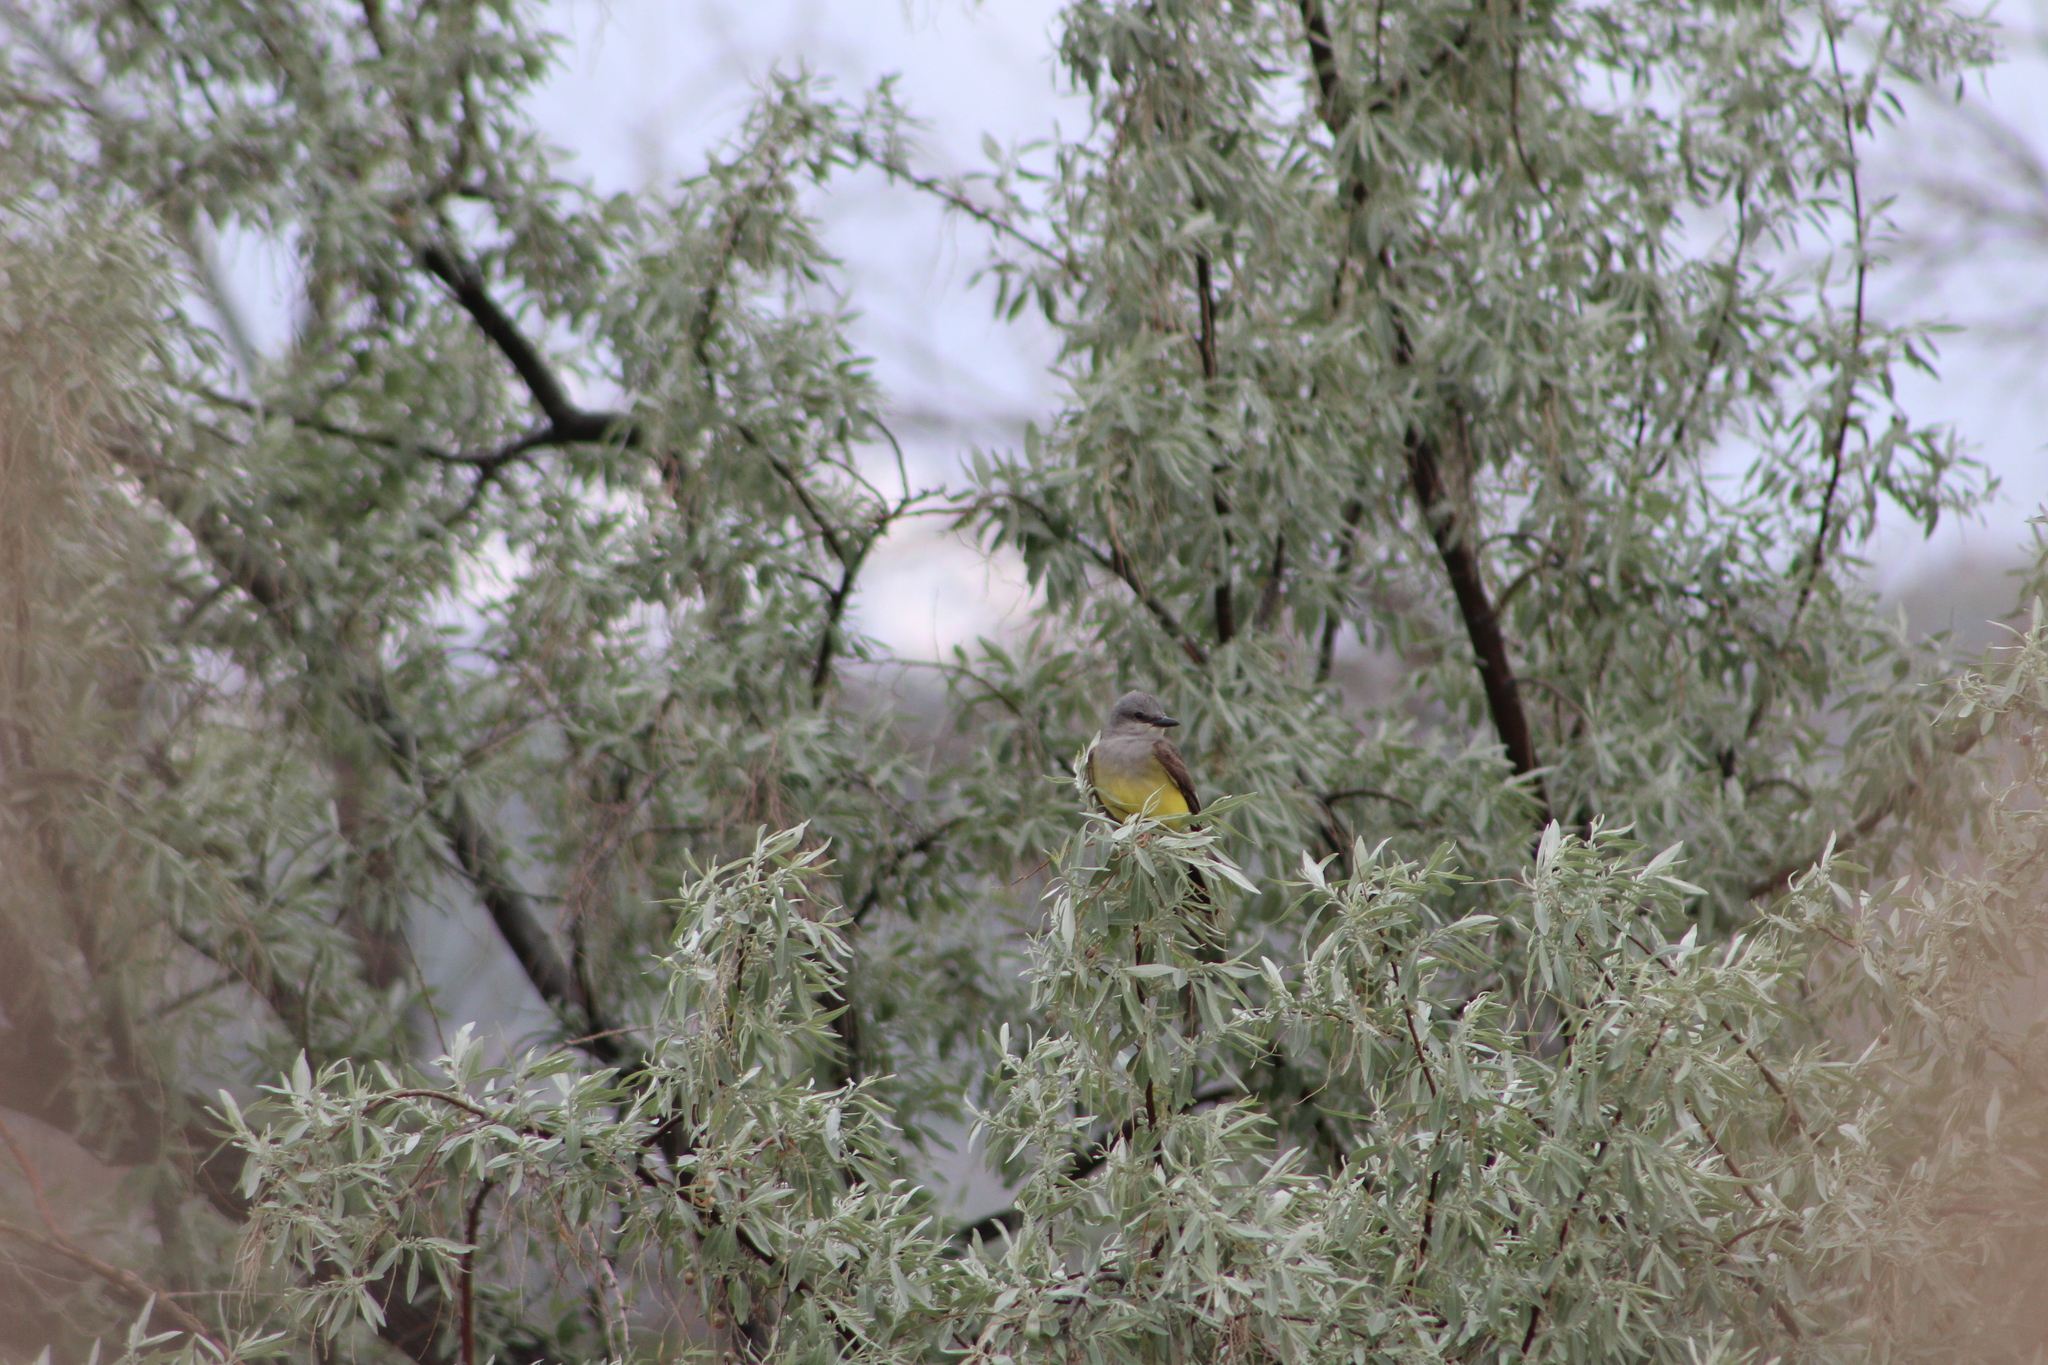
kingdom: Animalia
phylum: Chordata
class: Aves
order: Passeriformes
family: Tyrannidae
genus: Tyrannus
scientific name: Tyrannus verticalis
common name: Western kingbird
